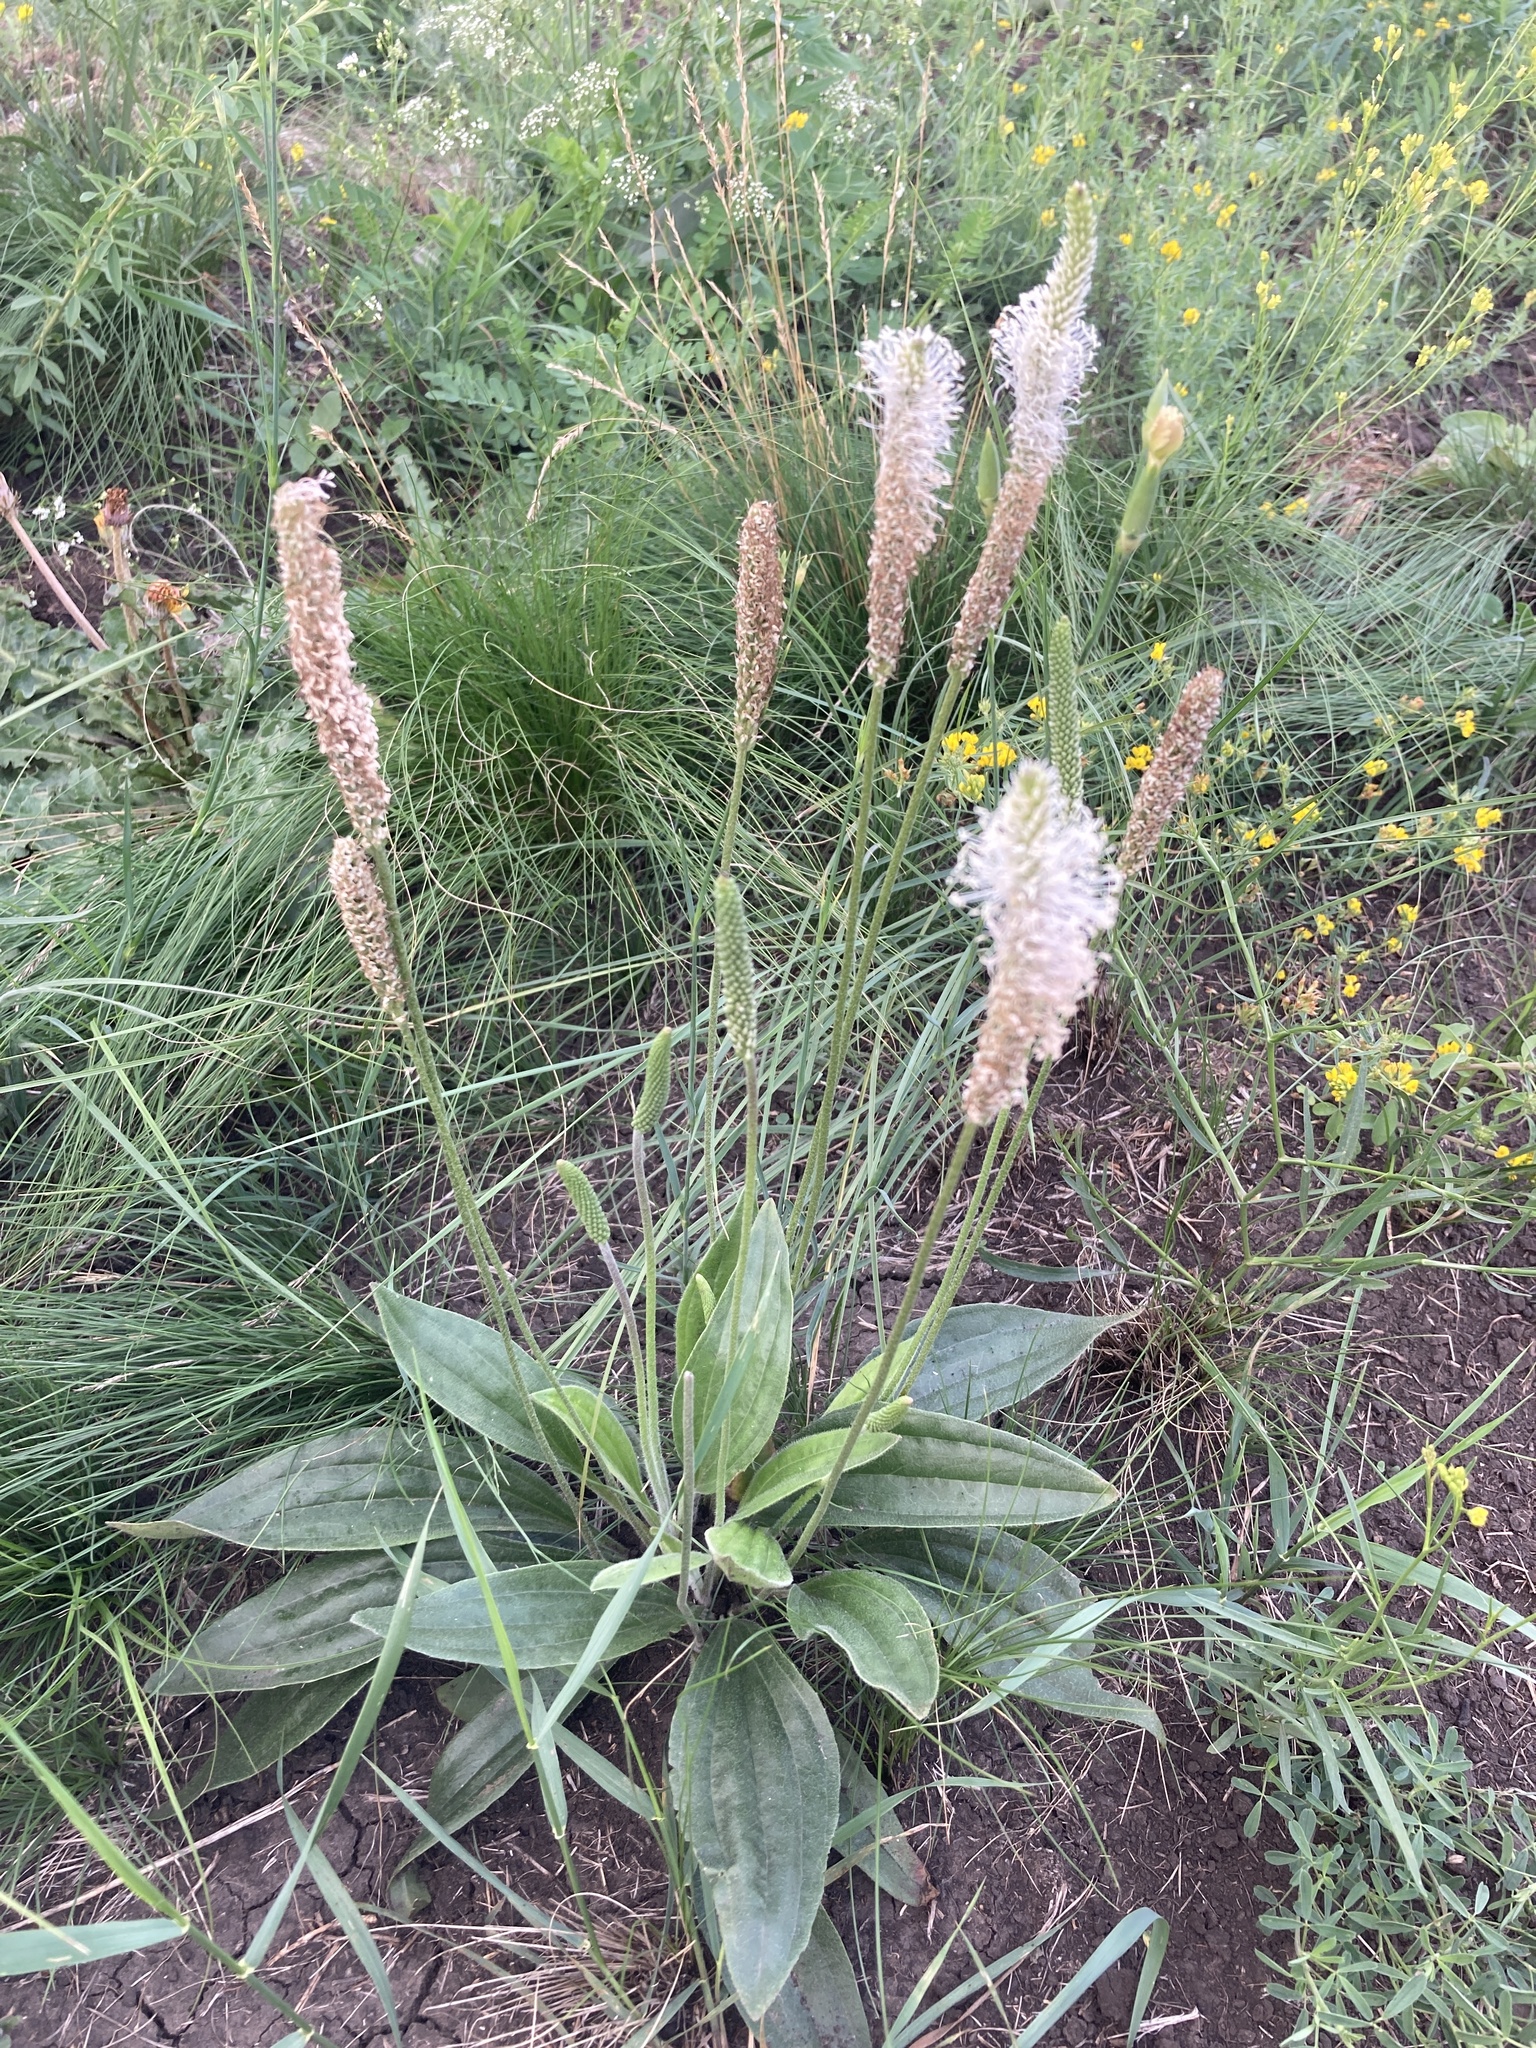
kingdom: Plantae
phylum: Tracheophyta
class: Magnoliopsida
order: Lamiales
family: Plantaginaceae
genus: Plantago
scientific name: Plantago media
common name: Hoary plantain
